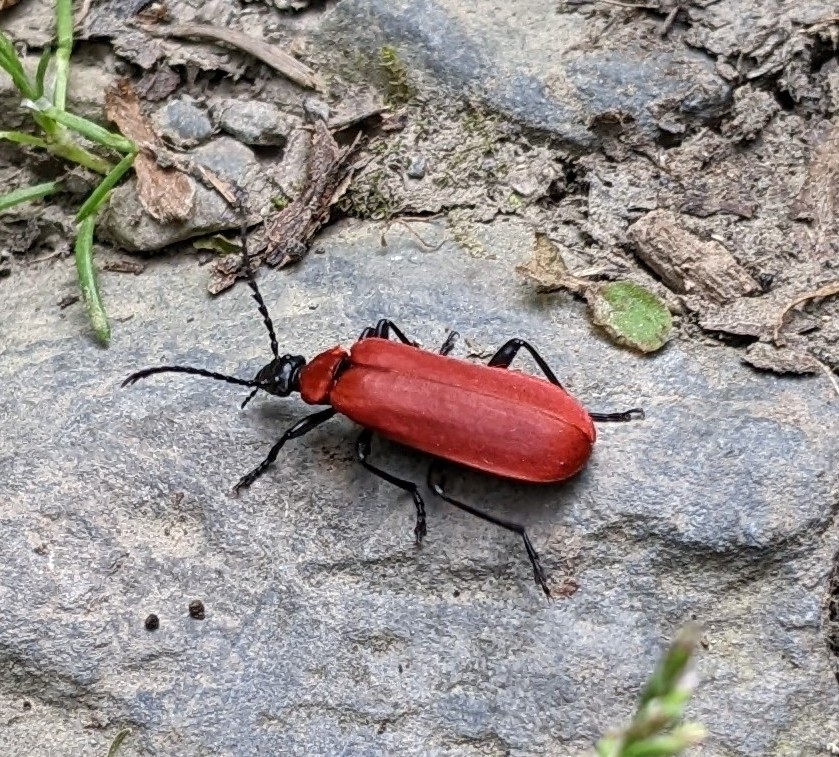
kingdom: Animalia
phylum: Arthropoda
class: Insecta
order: Coleoptera
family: Pyrochroidae
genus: Pyrochroa
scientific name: Pyrochroa coccinea
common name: Black-headed cardinal beetle
